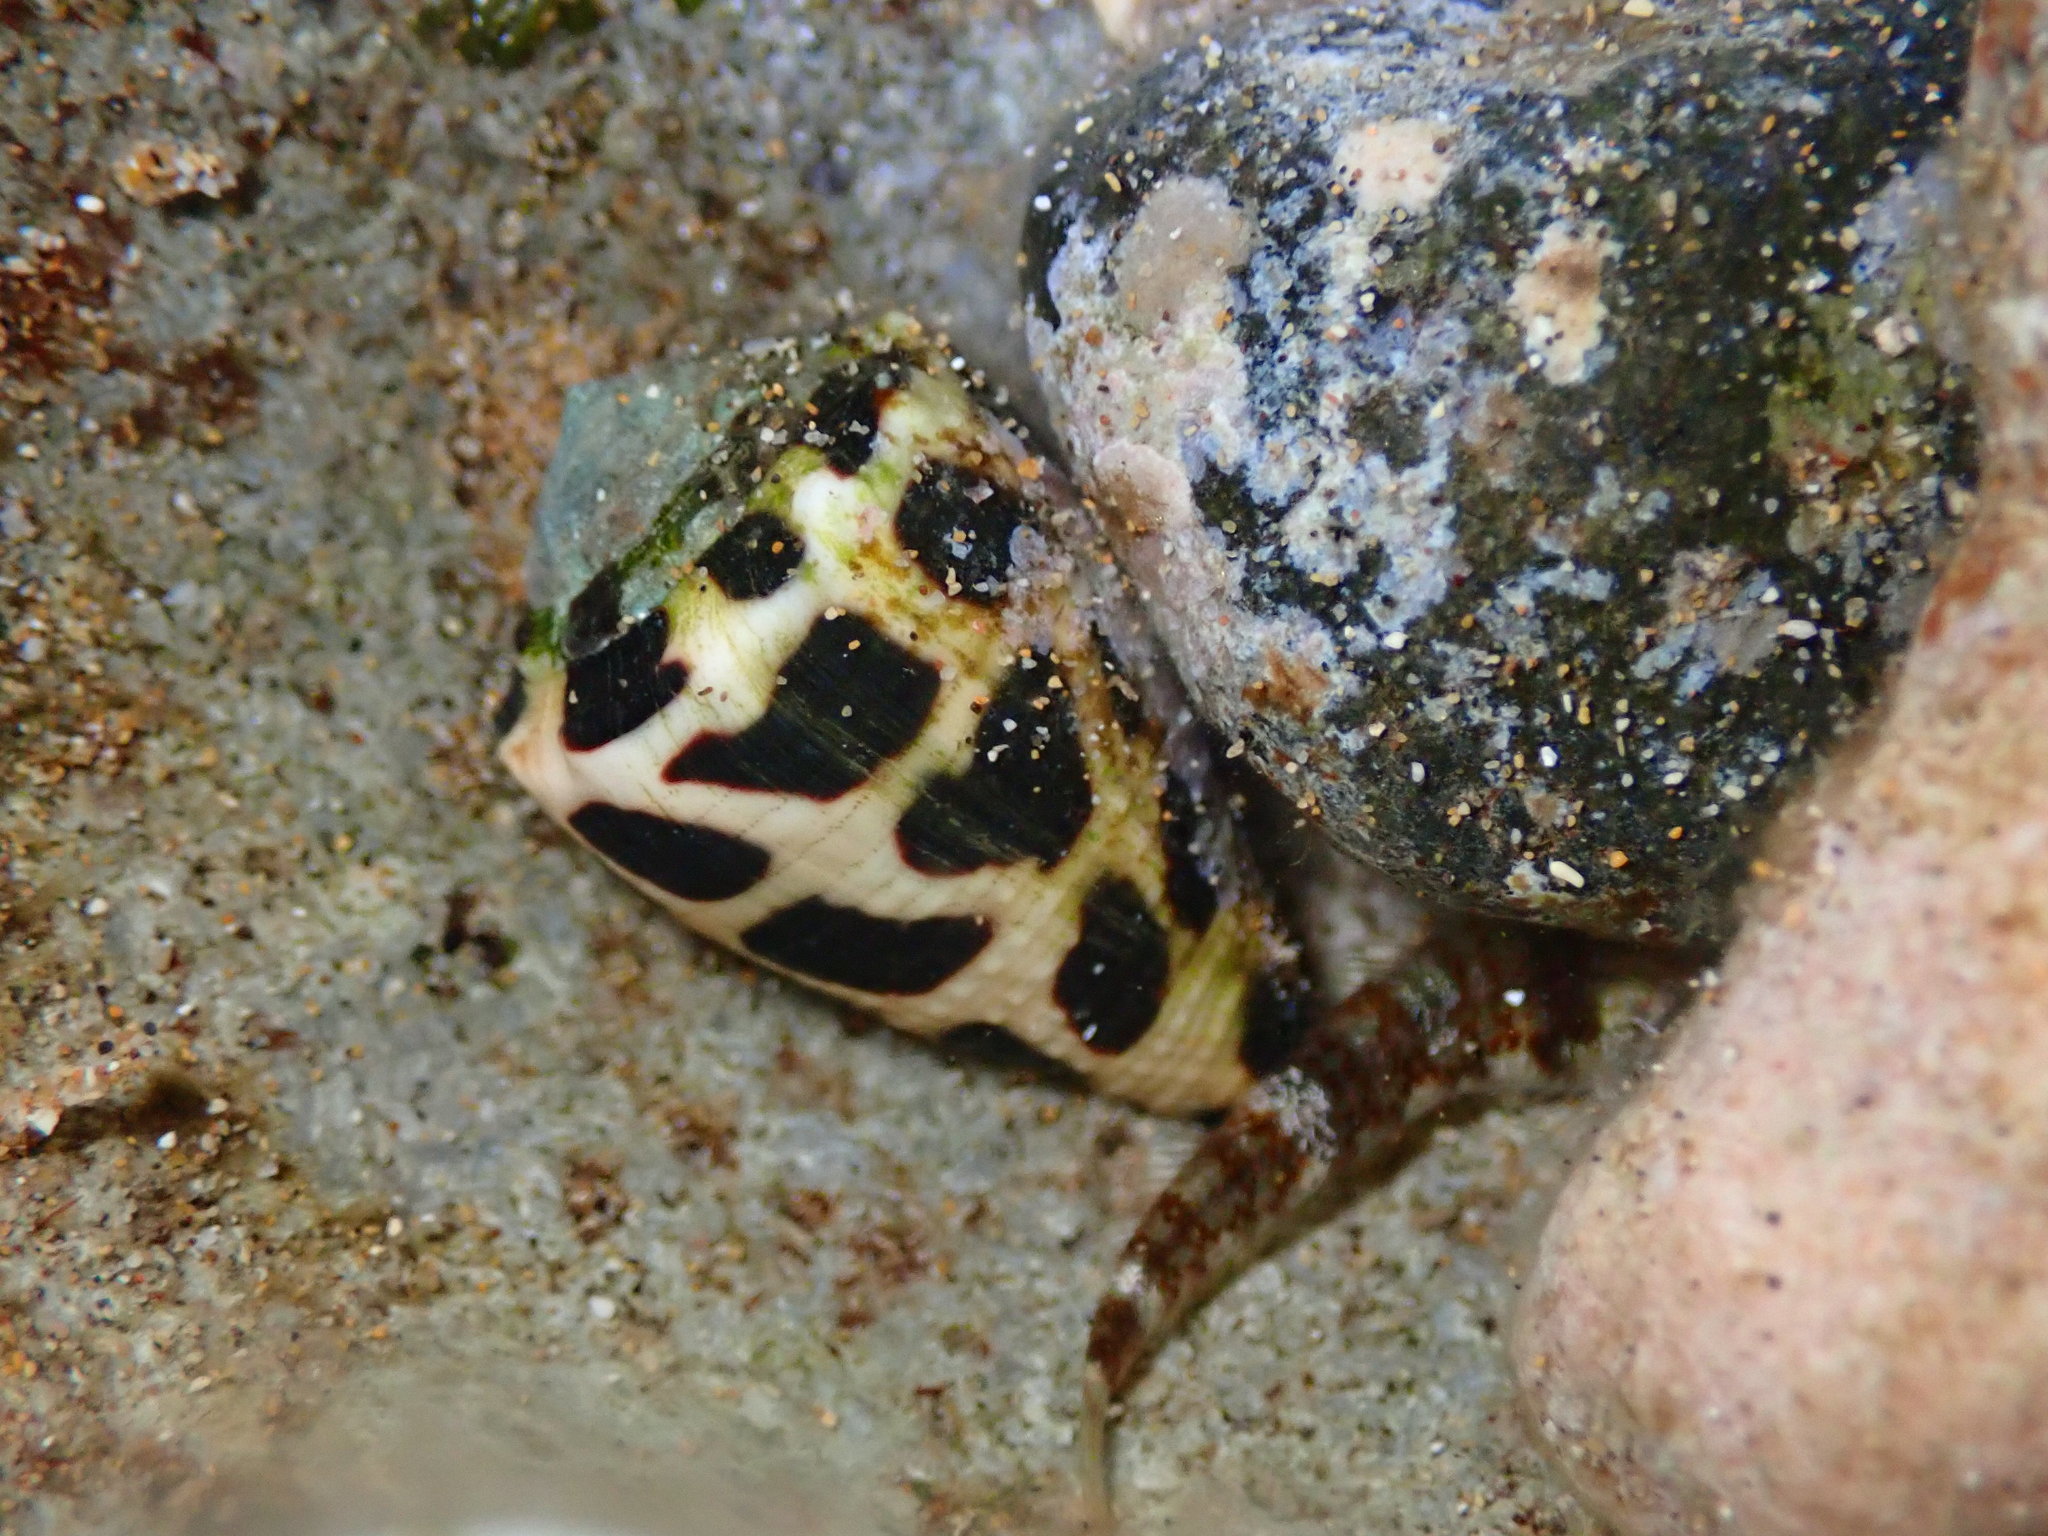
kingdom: Animalia
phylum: Mollusca
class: Gastropoda
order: Neogastropoda
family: Conidae
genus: Conus
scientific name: Conus ebraeus
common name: Hebrew cone
